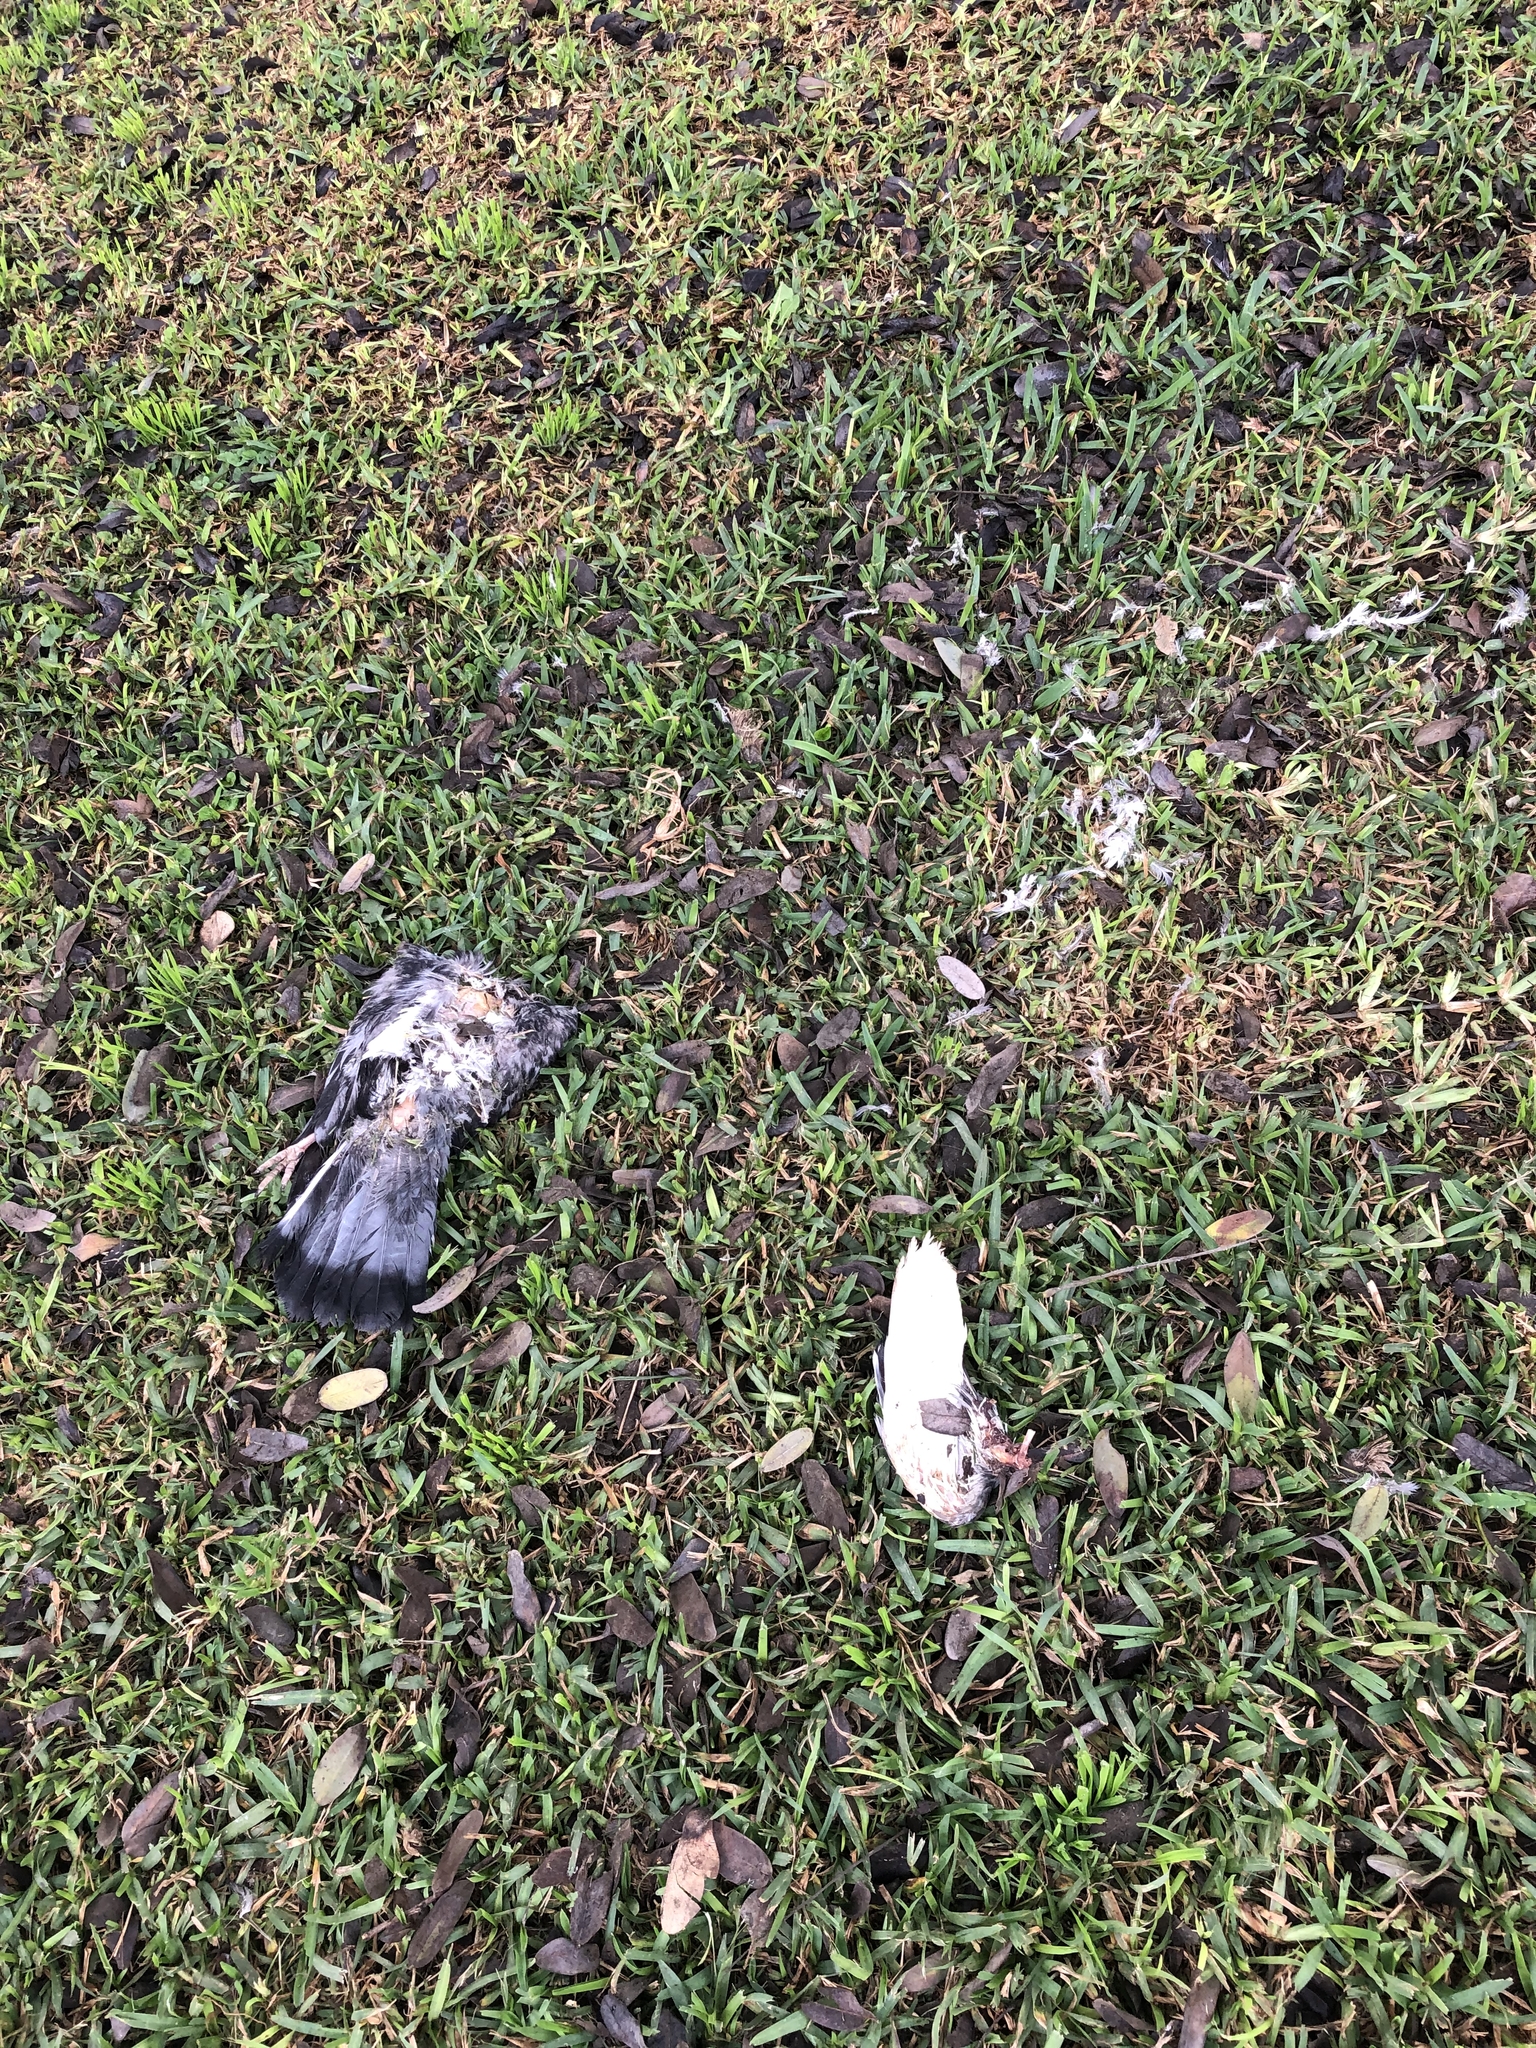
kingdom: Animalia
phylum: Chordata
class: Aves
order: Columbiformes
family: Columbidae
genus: Columba
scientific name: Columba livia
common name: Rock pigeon
